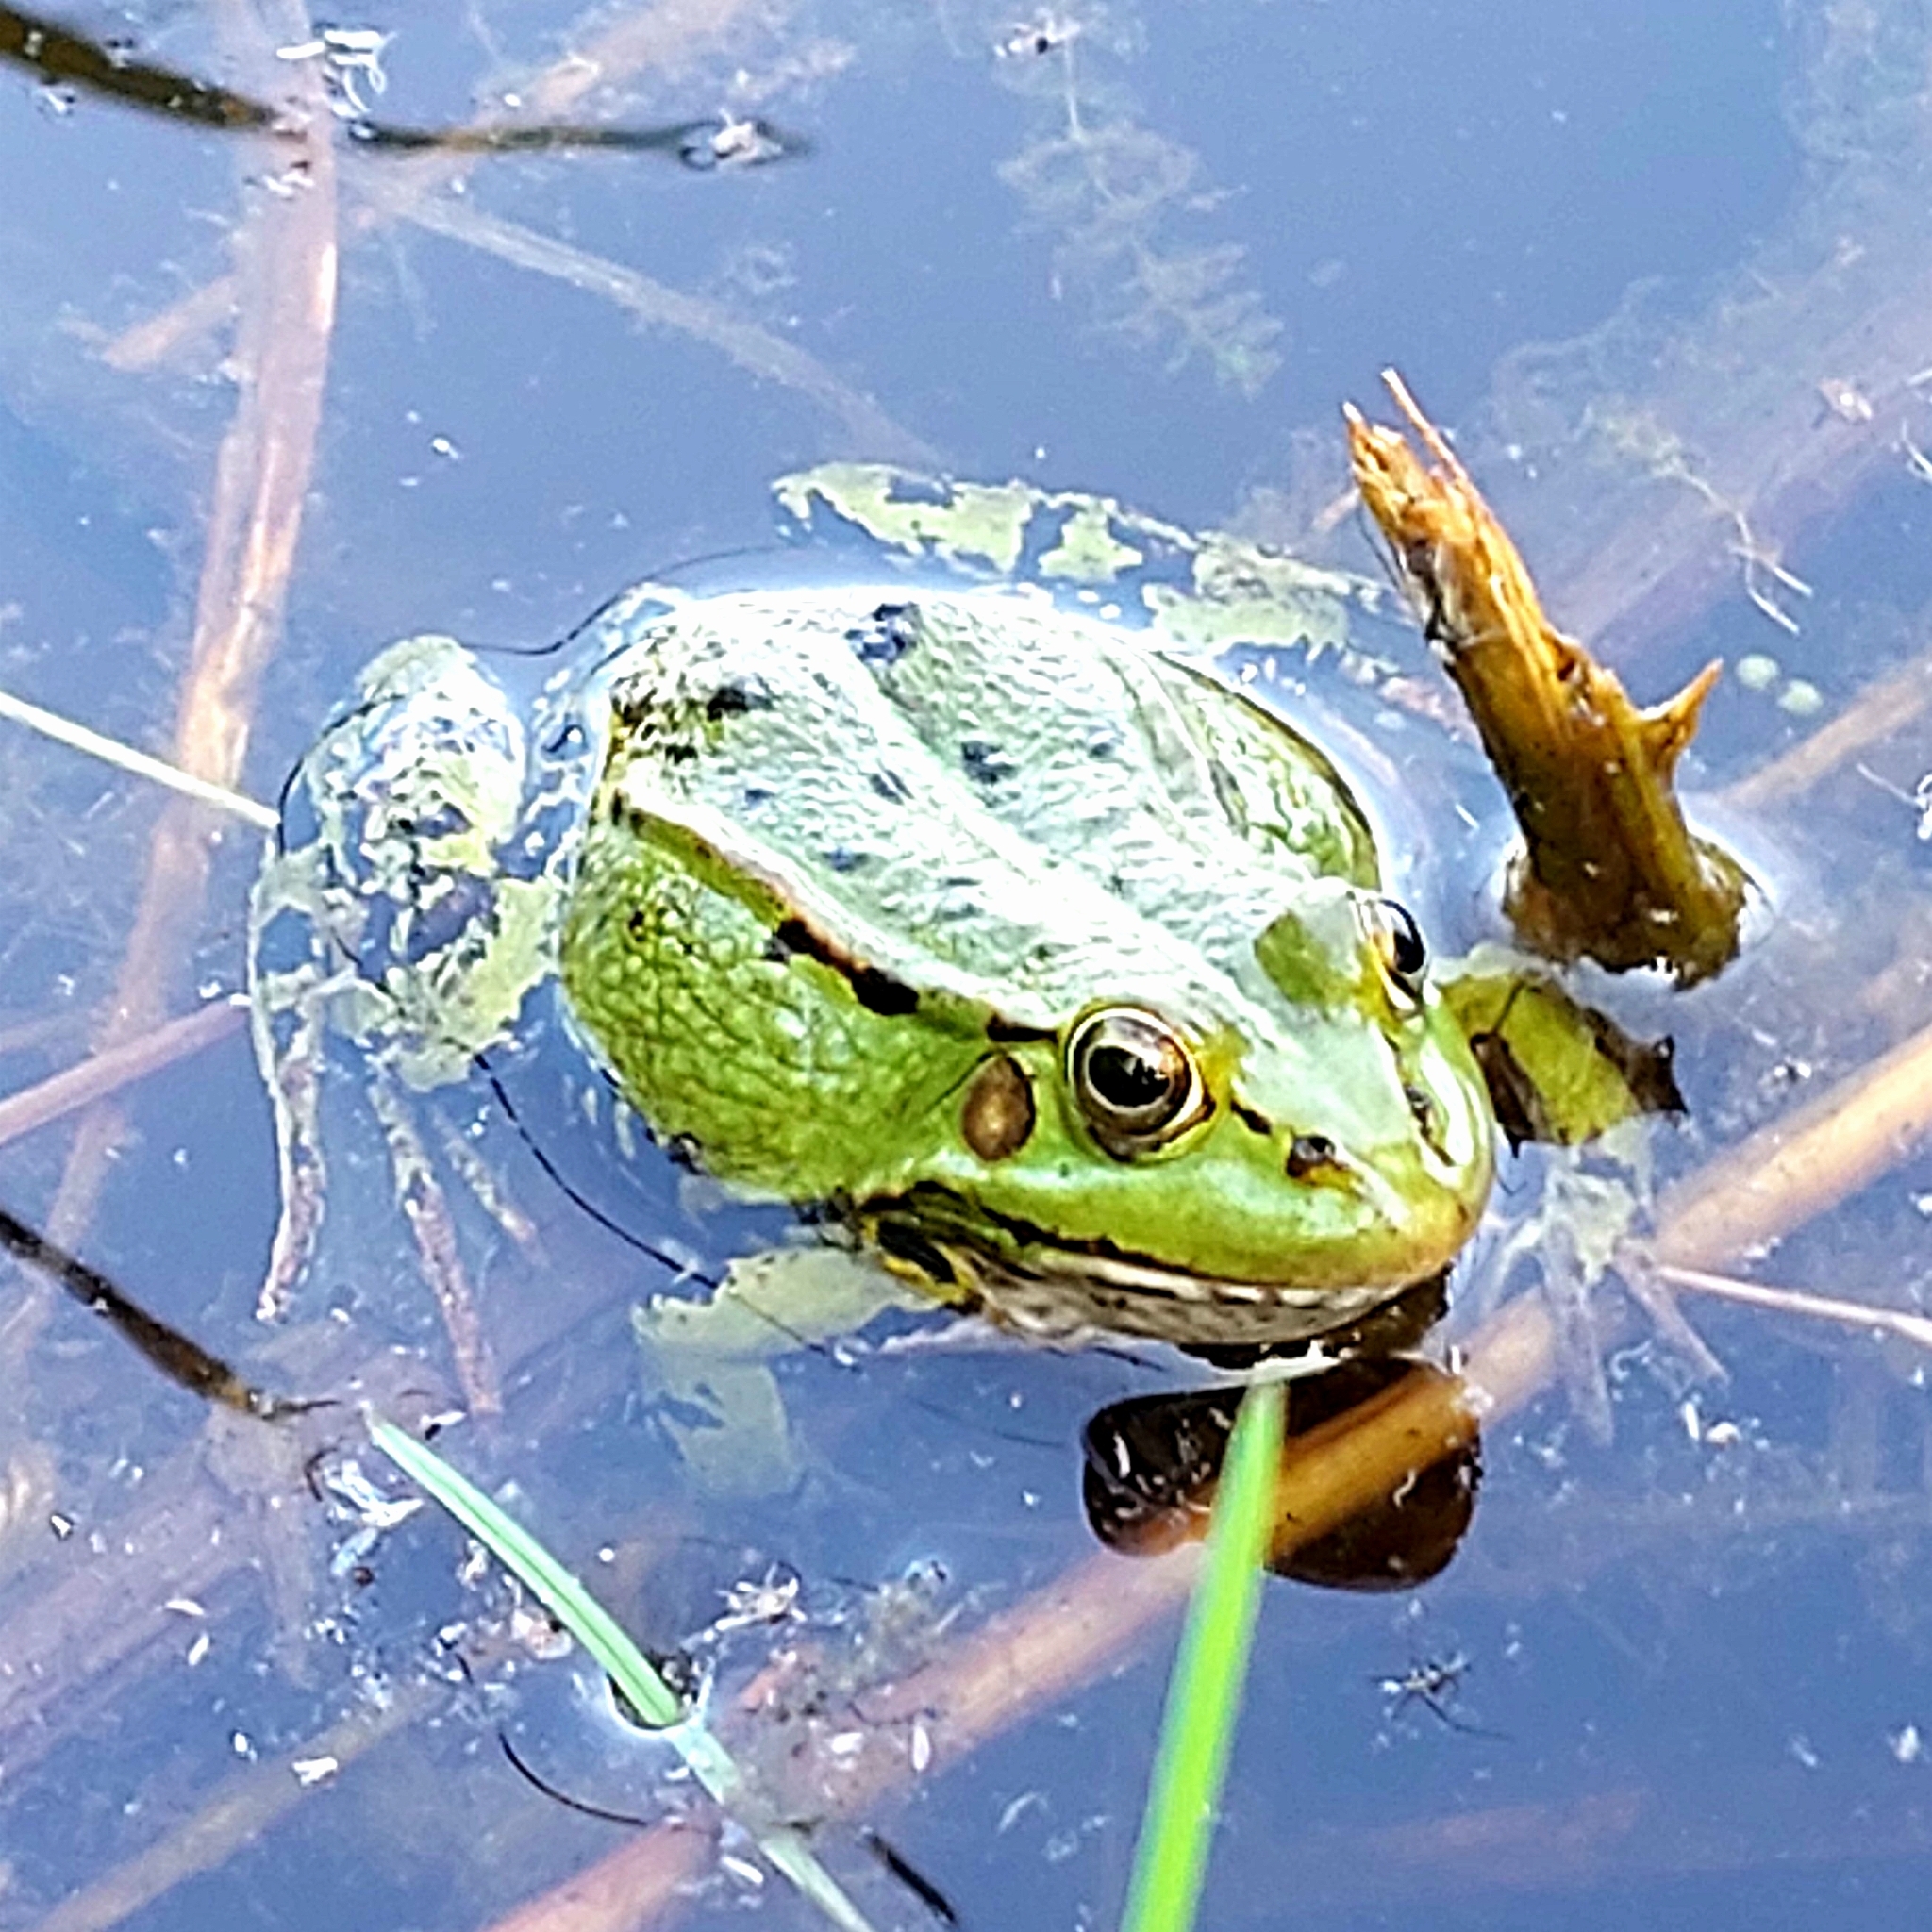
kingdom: Animalia
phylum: Chordata
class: Amphibia
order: Anura
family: Ranidae
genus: Pelophylax
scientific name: Pelophylax lessonae
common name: Pool frog
